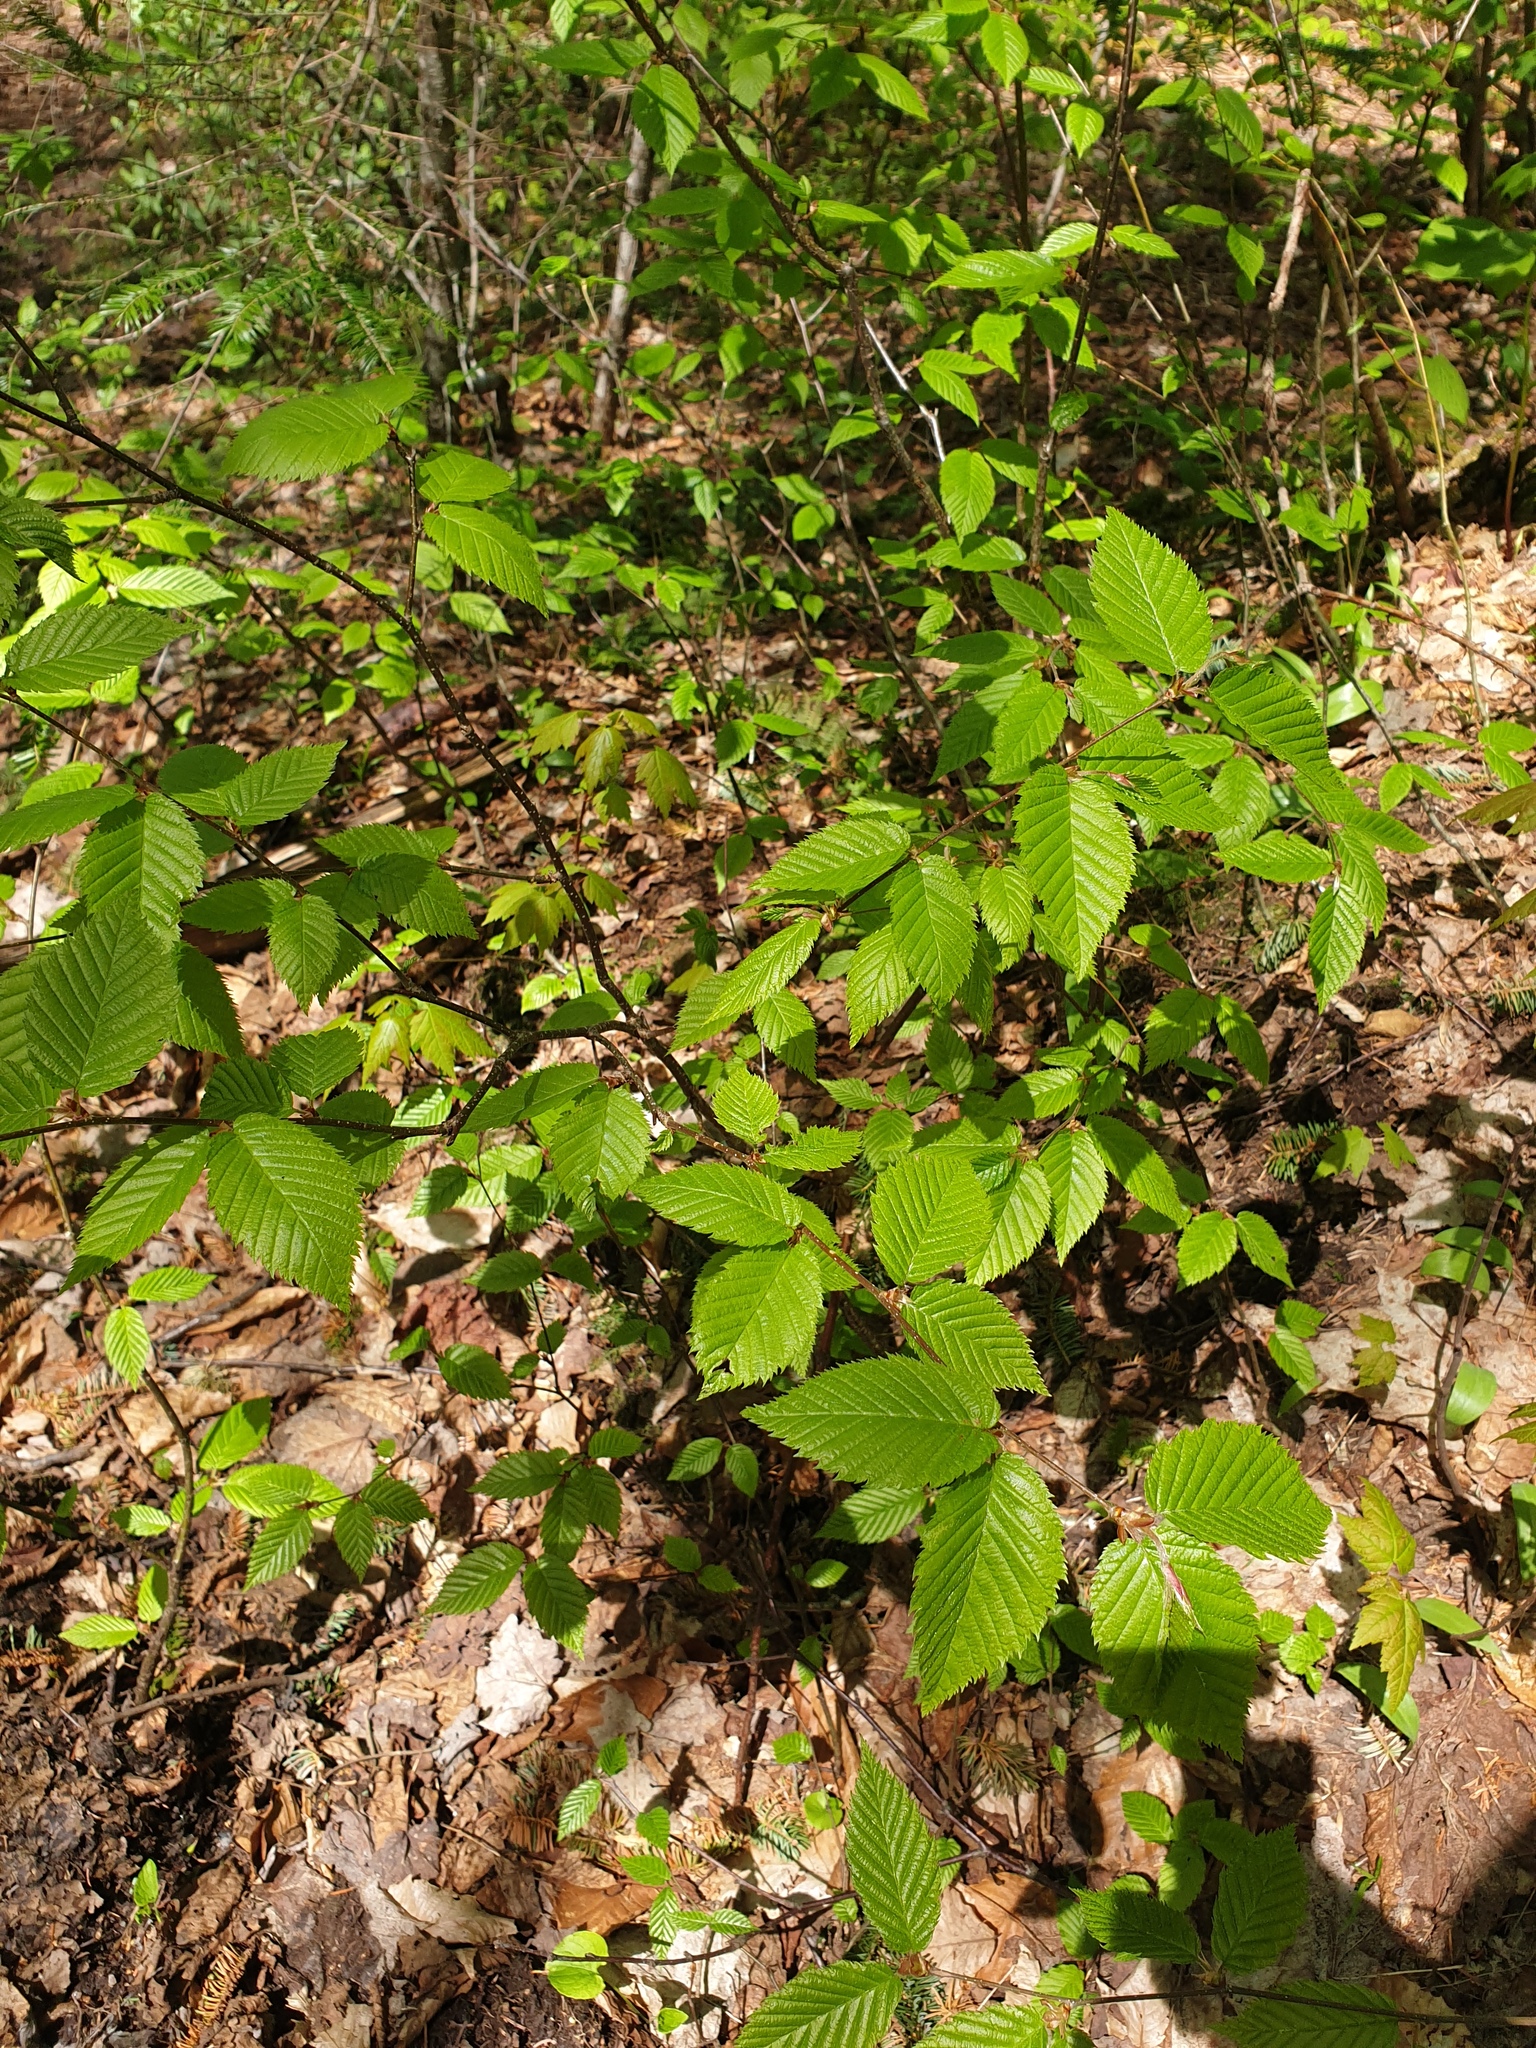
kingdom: Plantae
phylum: Tracheophyta
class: Magnoliopsida
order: Fagales
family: Betulaceae
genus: Betula
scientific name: Betula alleghaniensis
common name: Yellow birch
